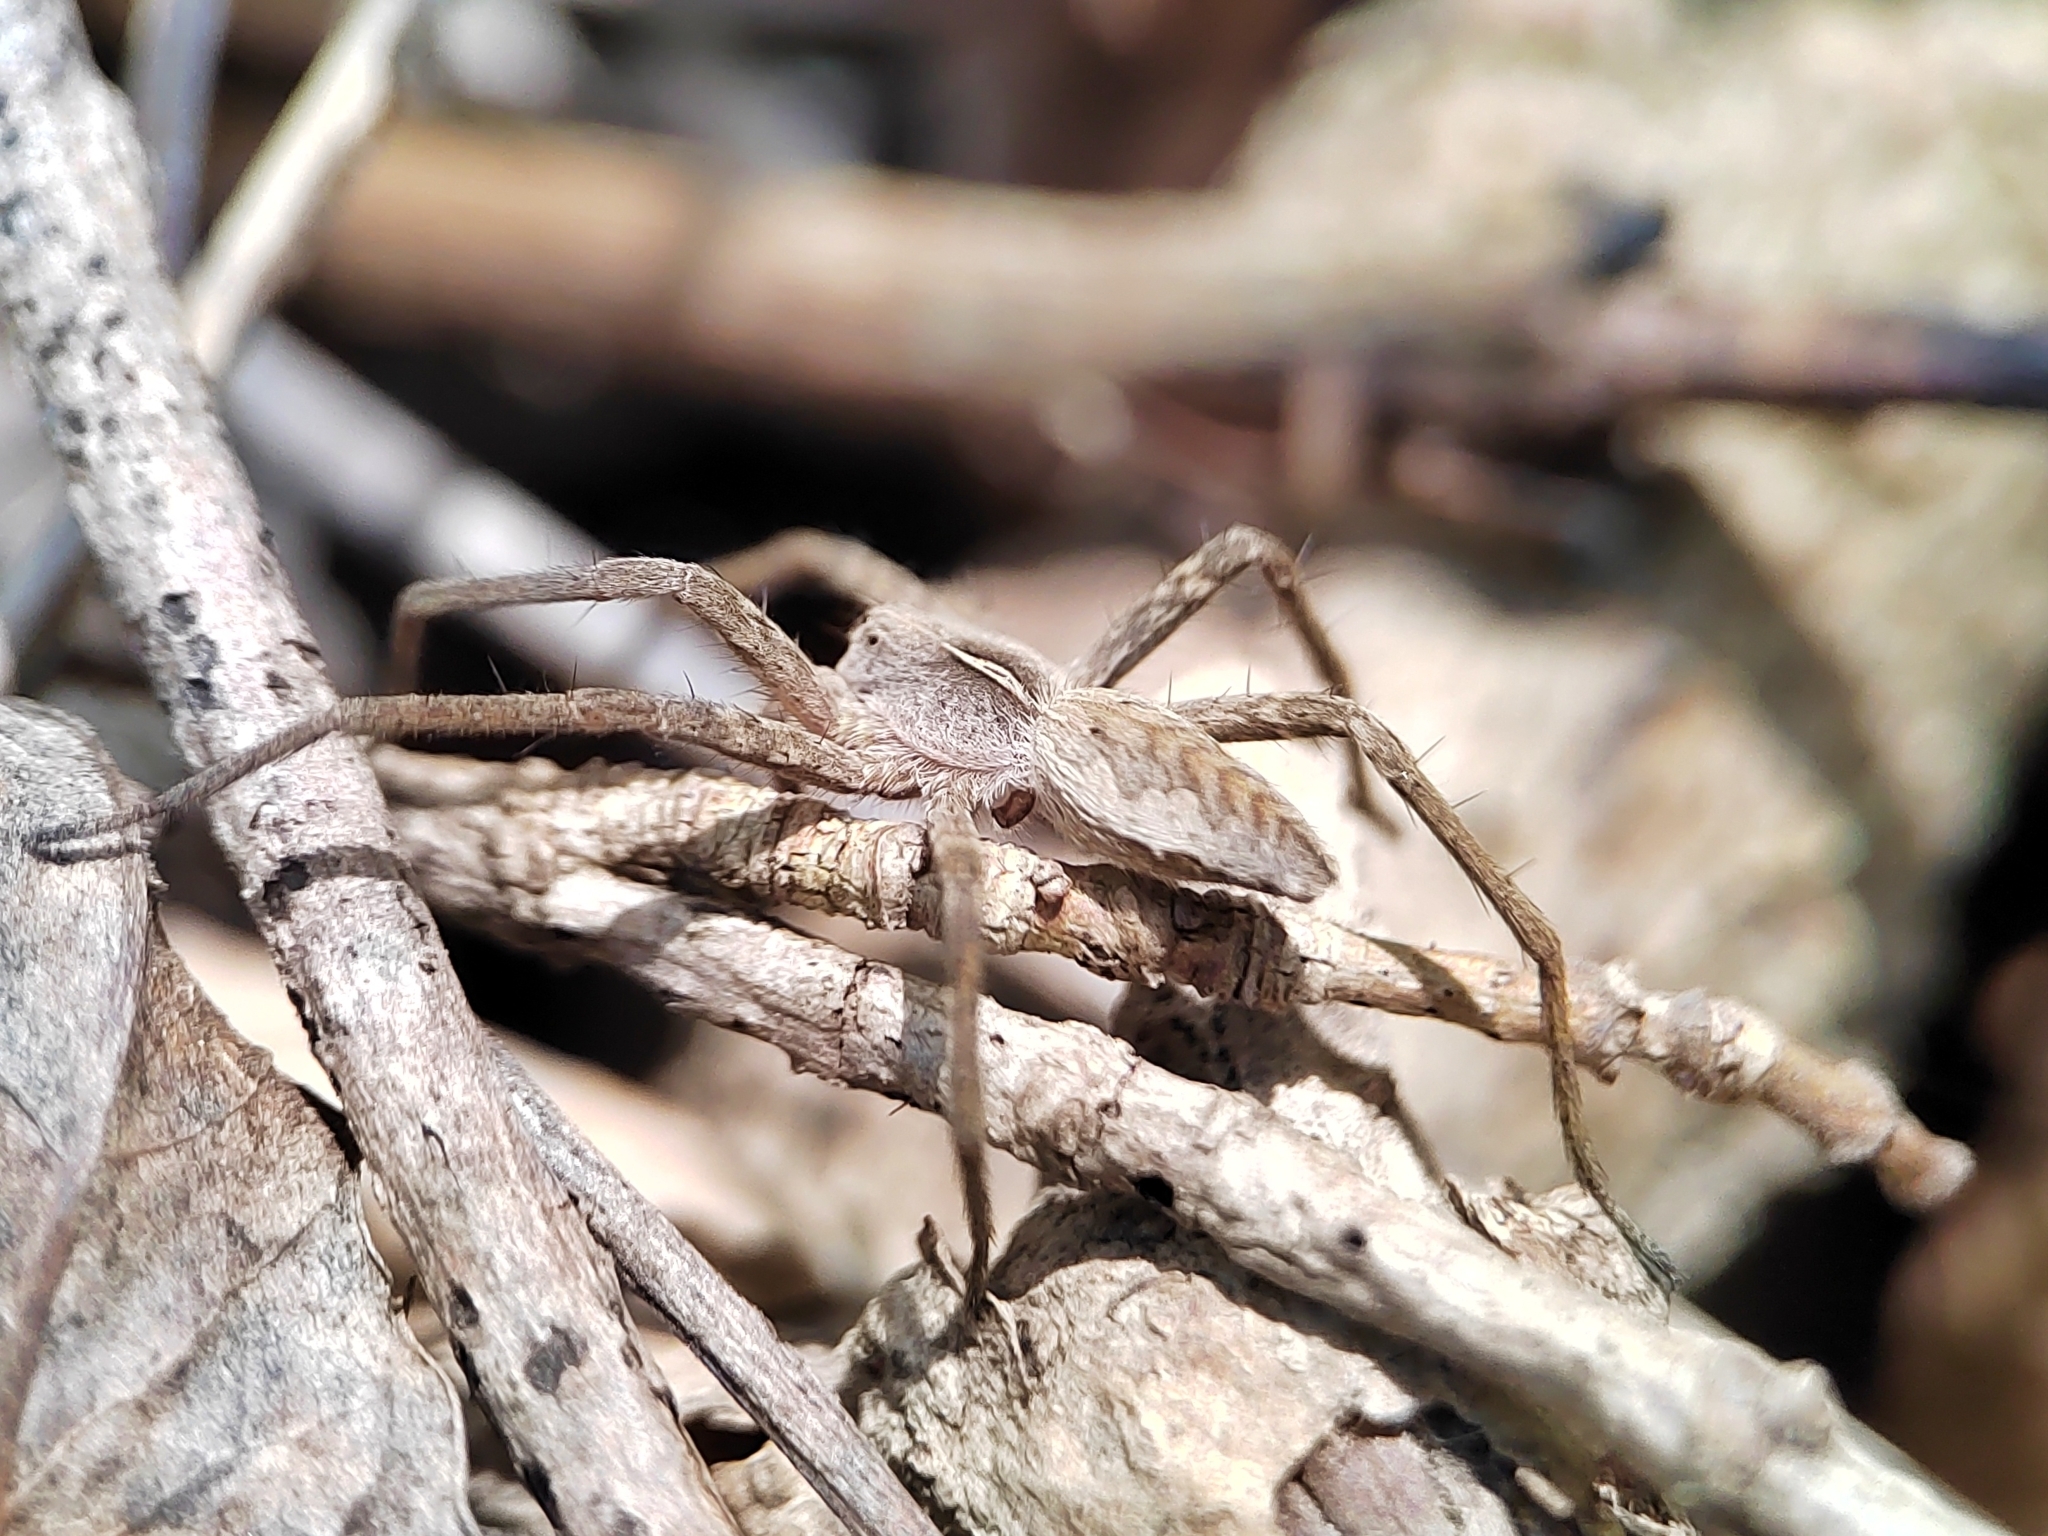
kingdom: Animalia
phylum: Arthropoda
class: Arachnida
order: Araneae
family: Pisauridae
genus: Pisaura
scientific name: Pisaura
